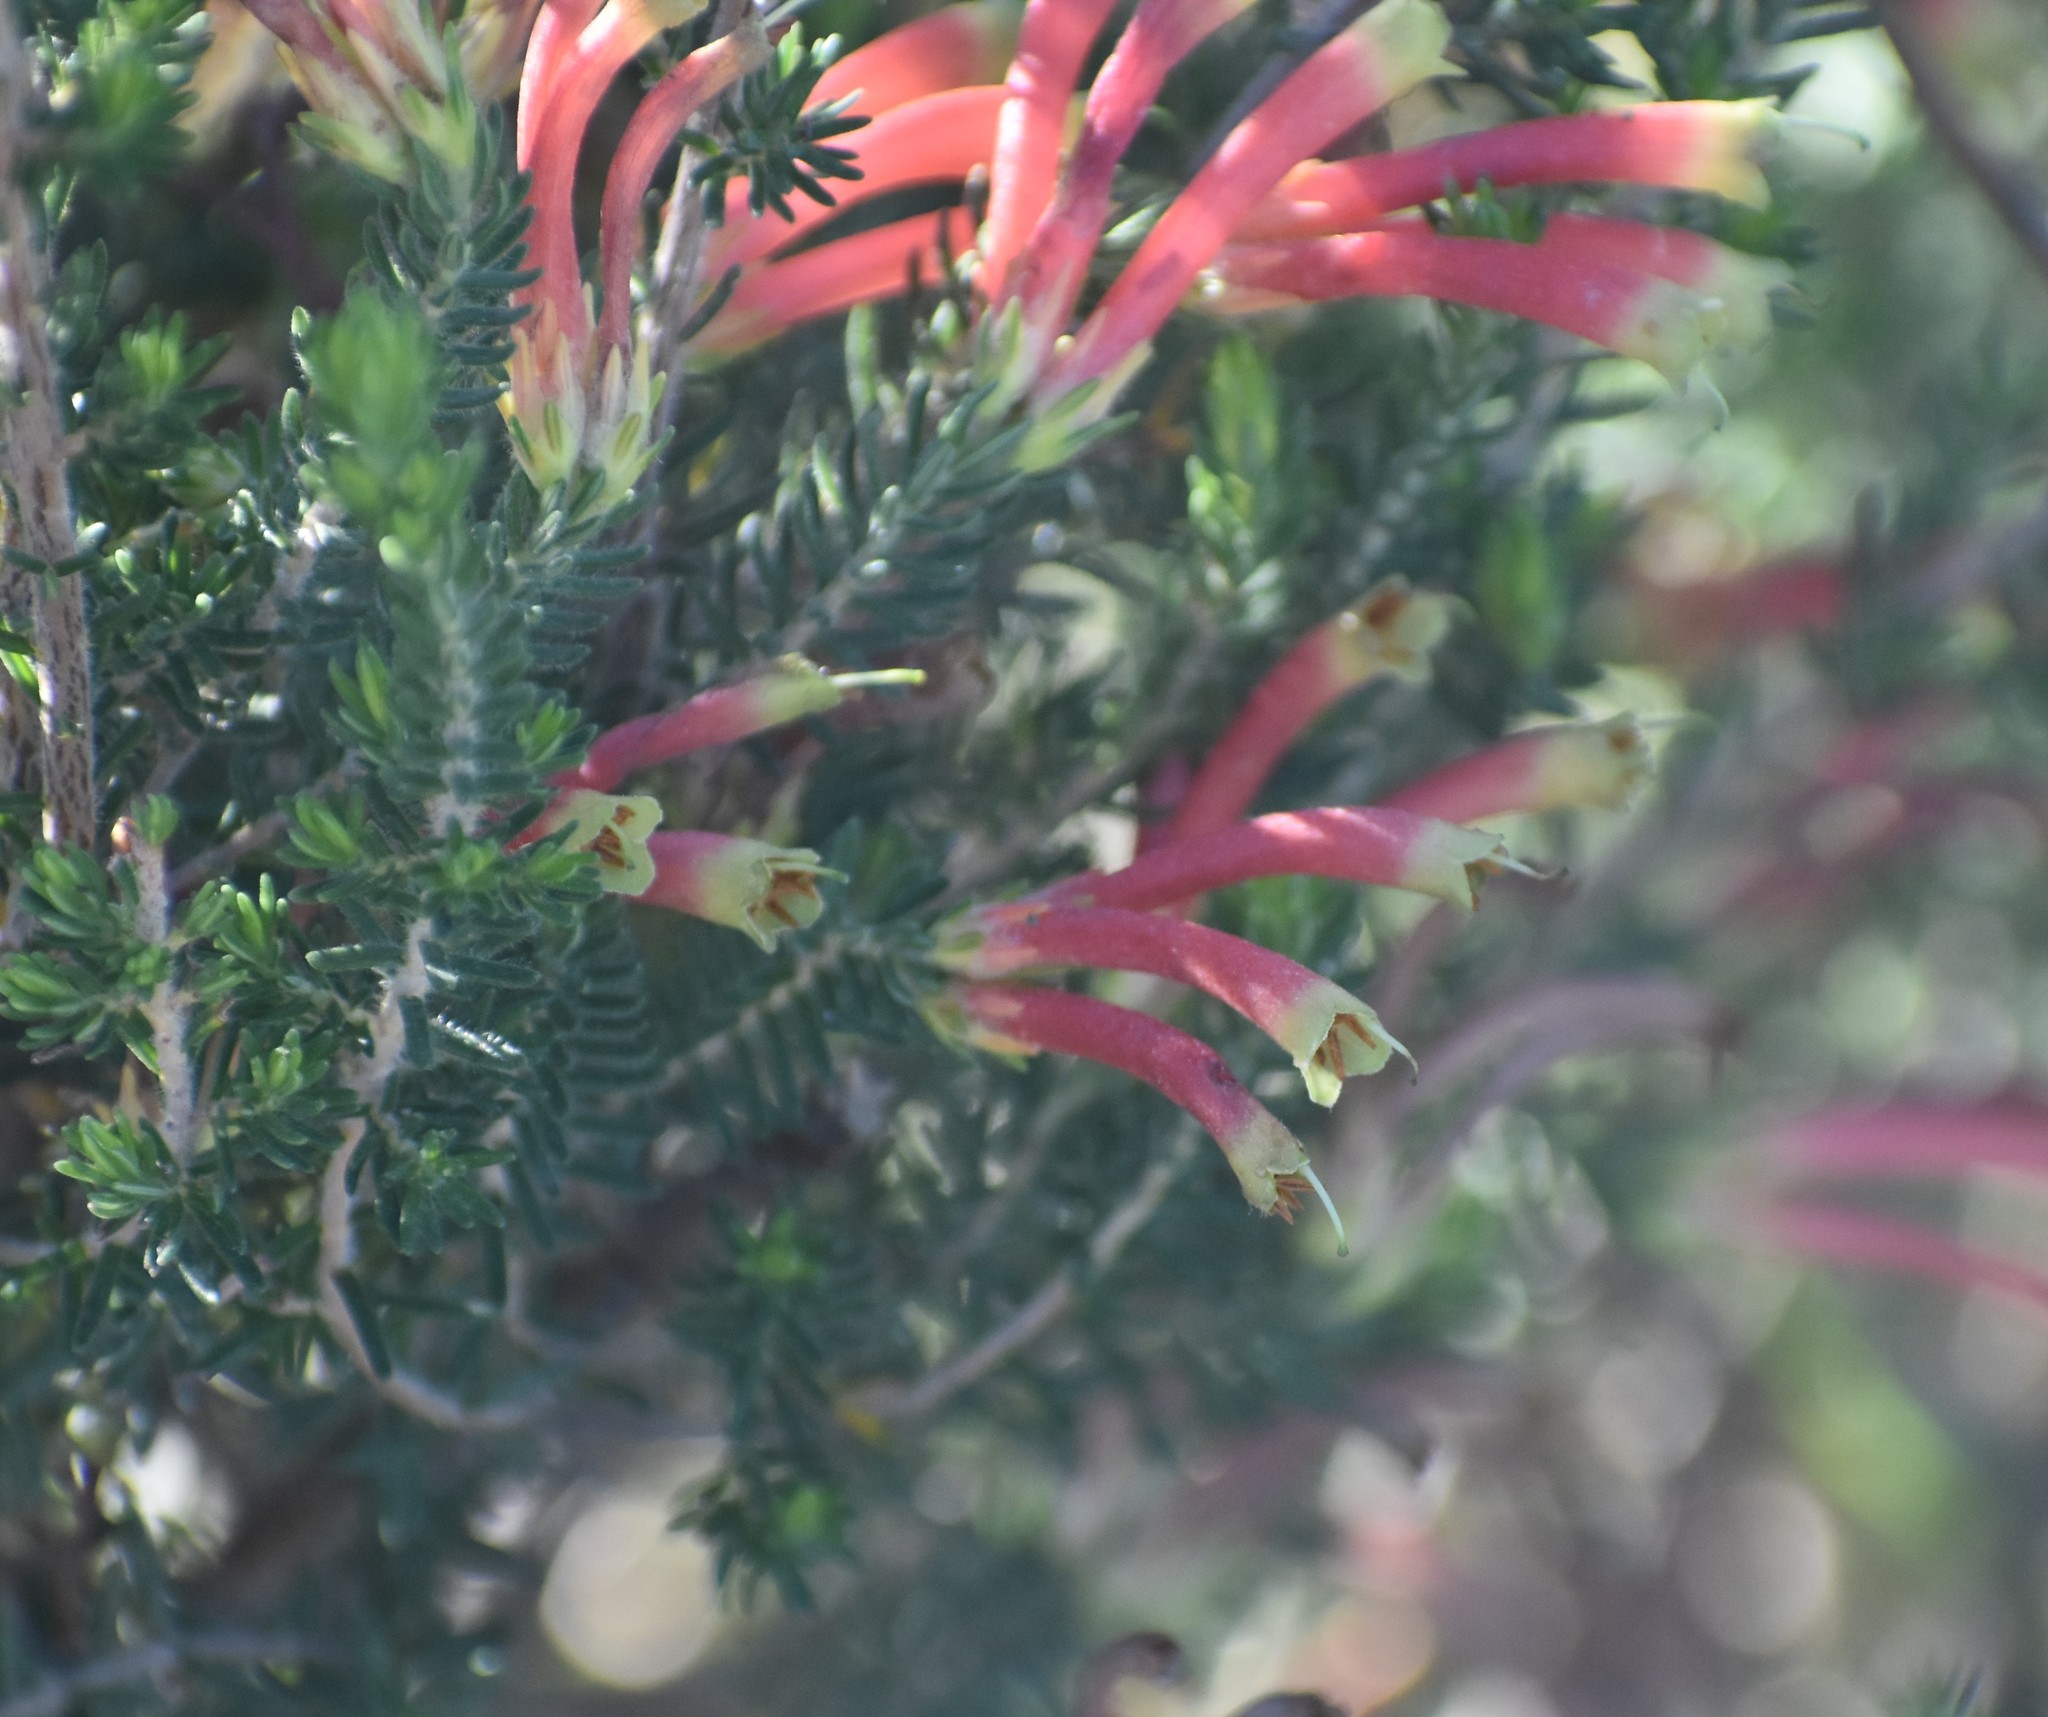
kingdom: Plantae
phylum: Tracheophyta
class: Magnoliopsida
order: Ericales
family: Ericaceae
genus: Erica
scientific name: Erica discolor
